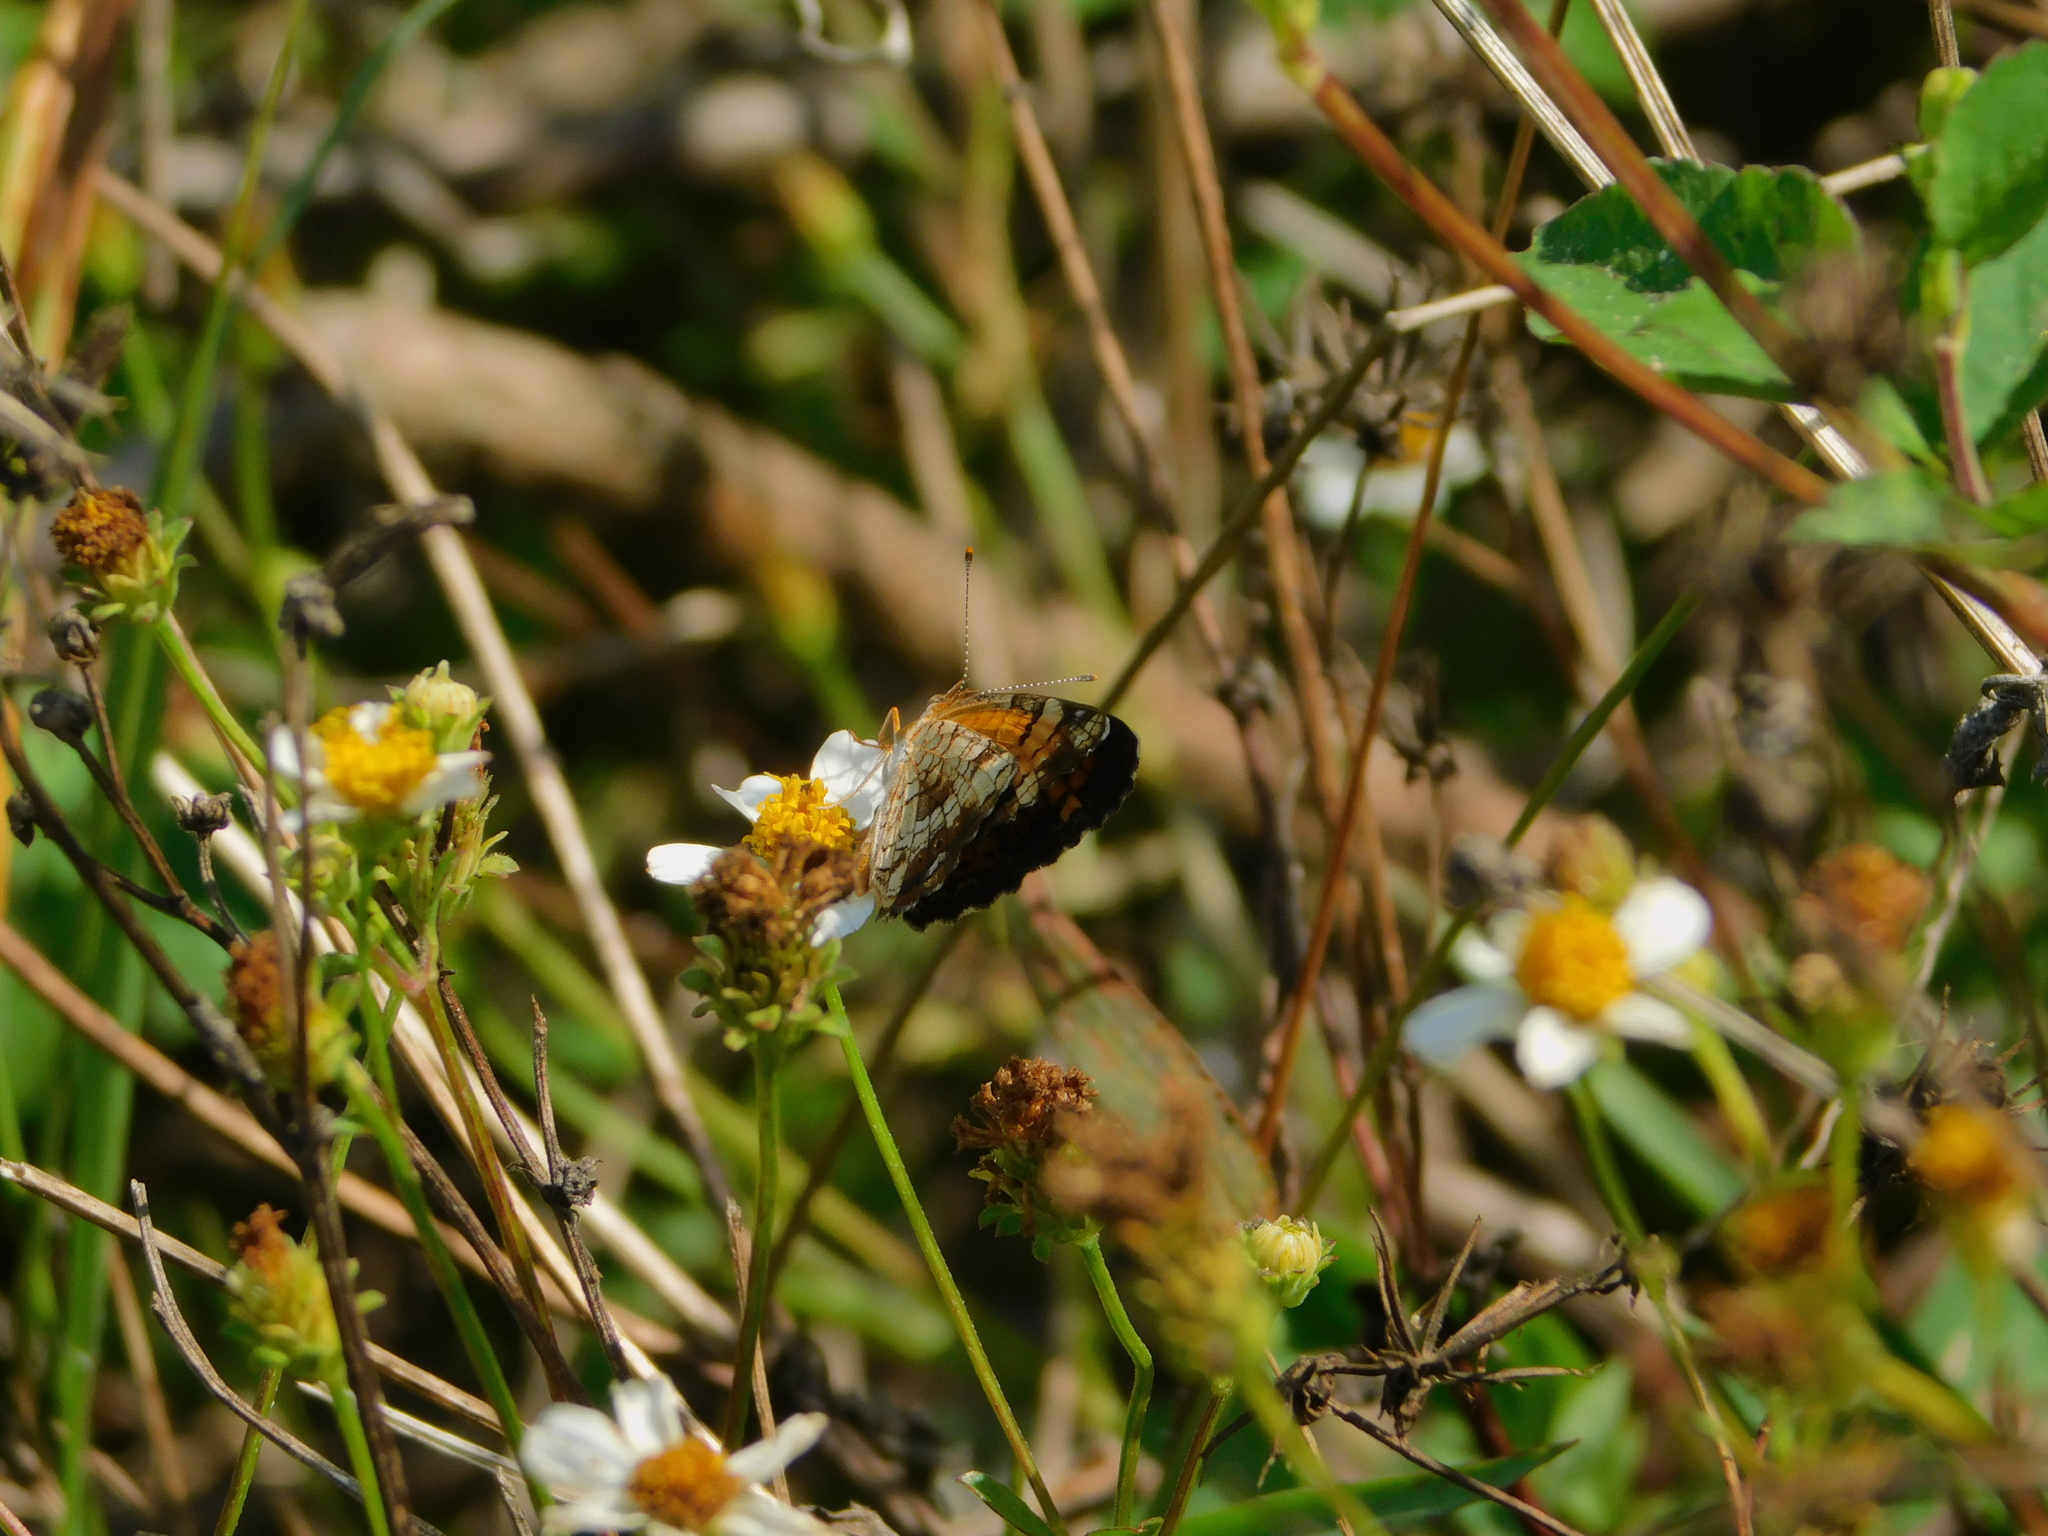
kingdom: Plantae
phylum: Tracheophyta
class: Magnoliopsida
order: Asterales
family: Asteraceae
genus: Bidens
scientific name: Bidens alba
